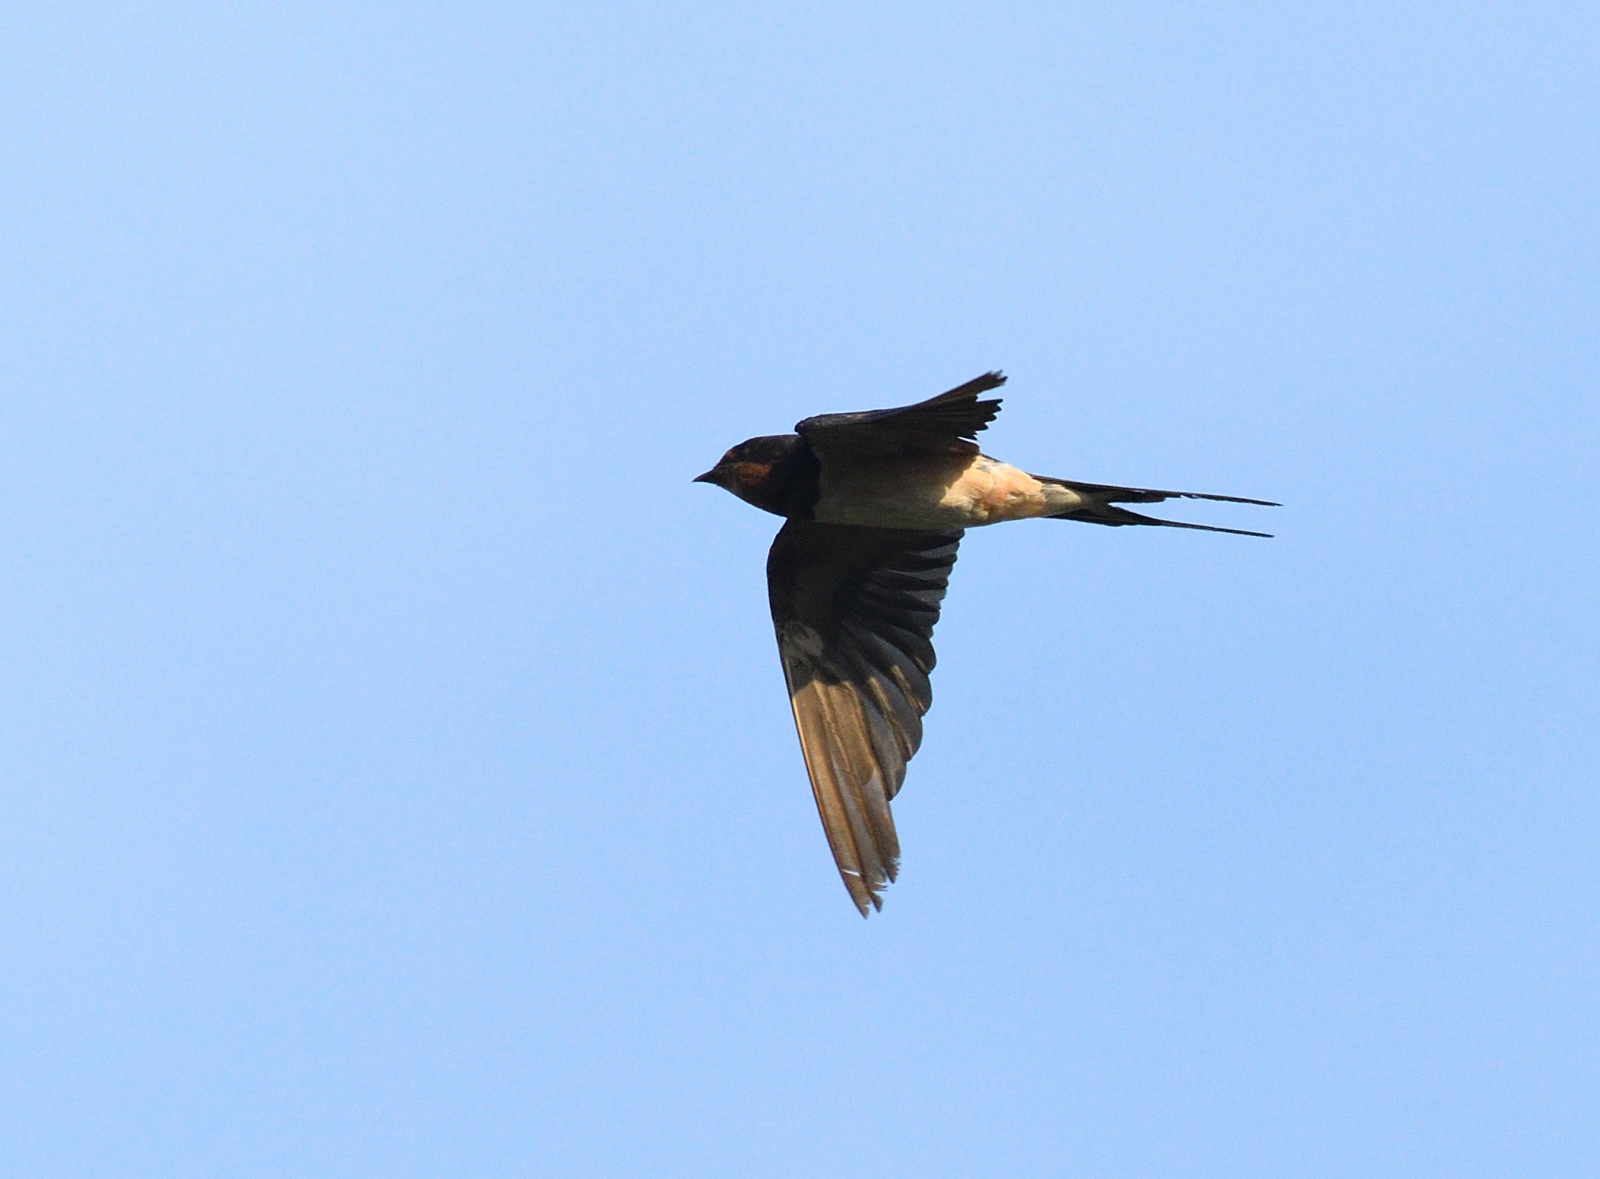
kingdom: Animalia
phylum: Chordata
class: Aves
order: Passeriformes
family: Hirundinidae
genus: Hirundo
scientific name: Hirundo rustica
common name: Barn swallow
